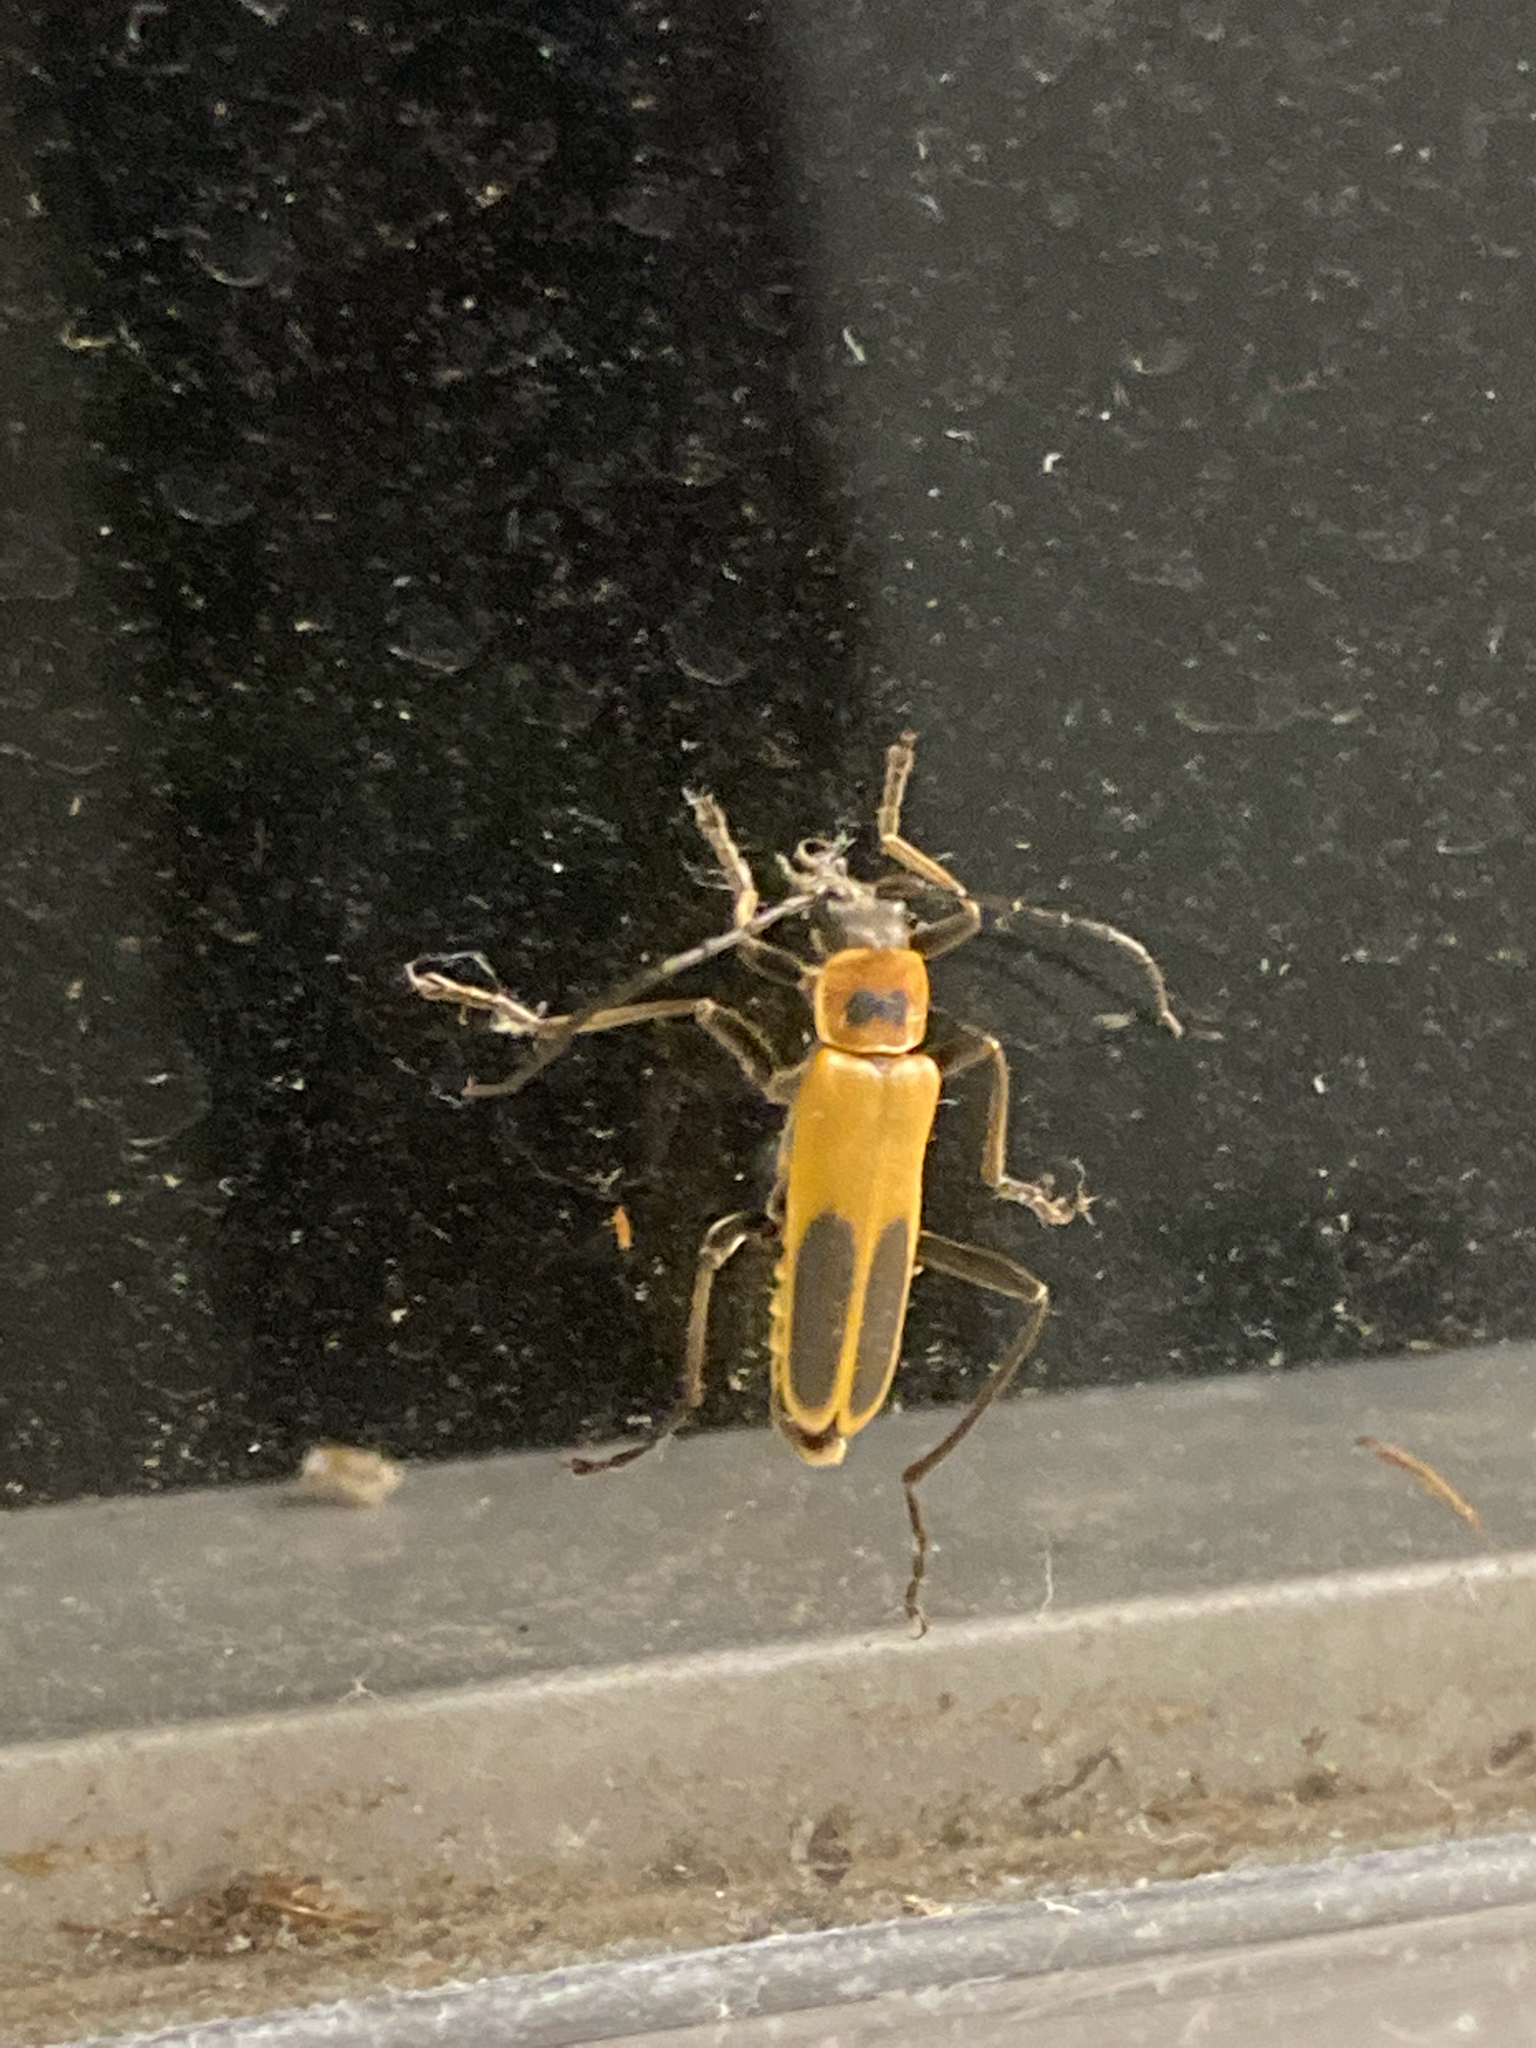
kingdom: Animalia
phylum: Arthropoda
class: Insecta
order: Coleoptera
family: Cantharidae
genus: Chauliognathus
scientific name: Chauliognathus pensylvanicus
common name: Goldenrod soldier beetle
